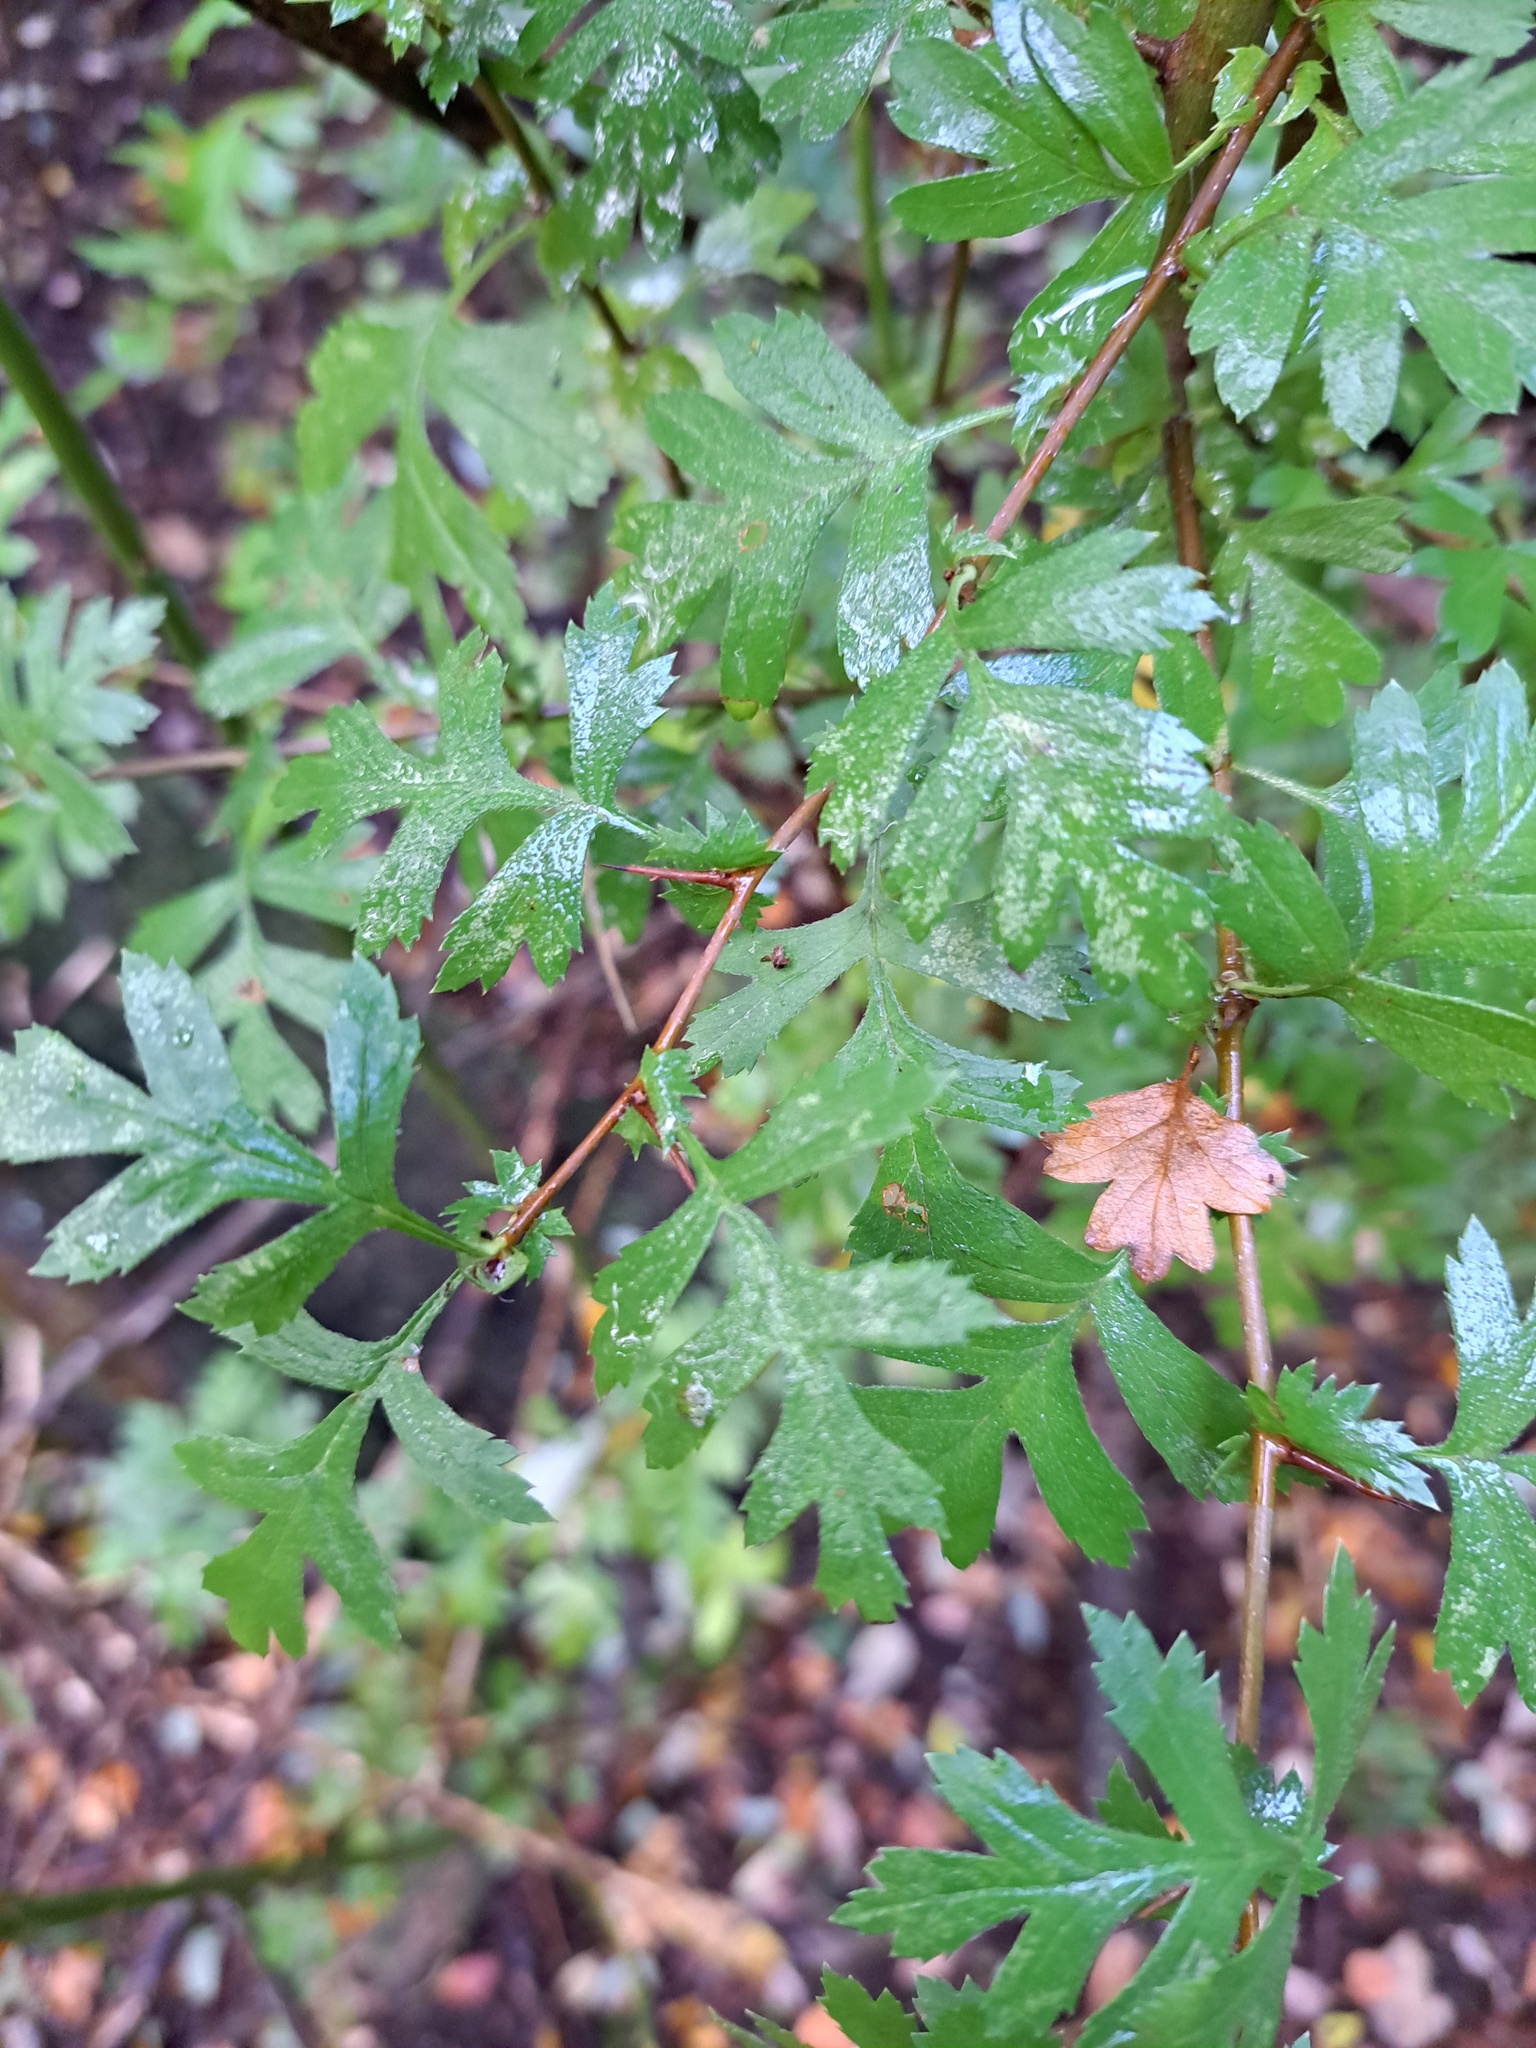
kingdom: Plantae
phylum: Tracheophyta
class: Magnoliopsida
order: Rosales
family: Rosaceae
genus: Crataegus
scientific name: Crataegus monogyna
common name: Hawthorn
